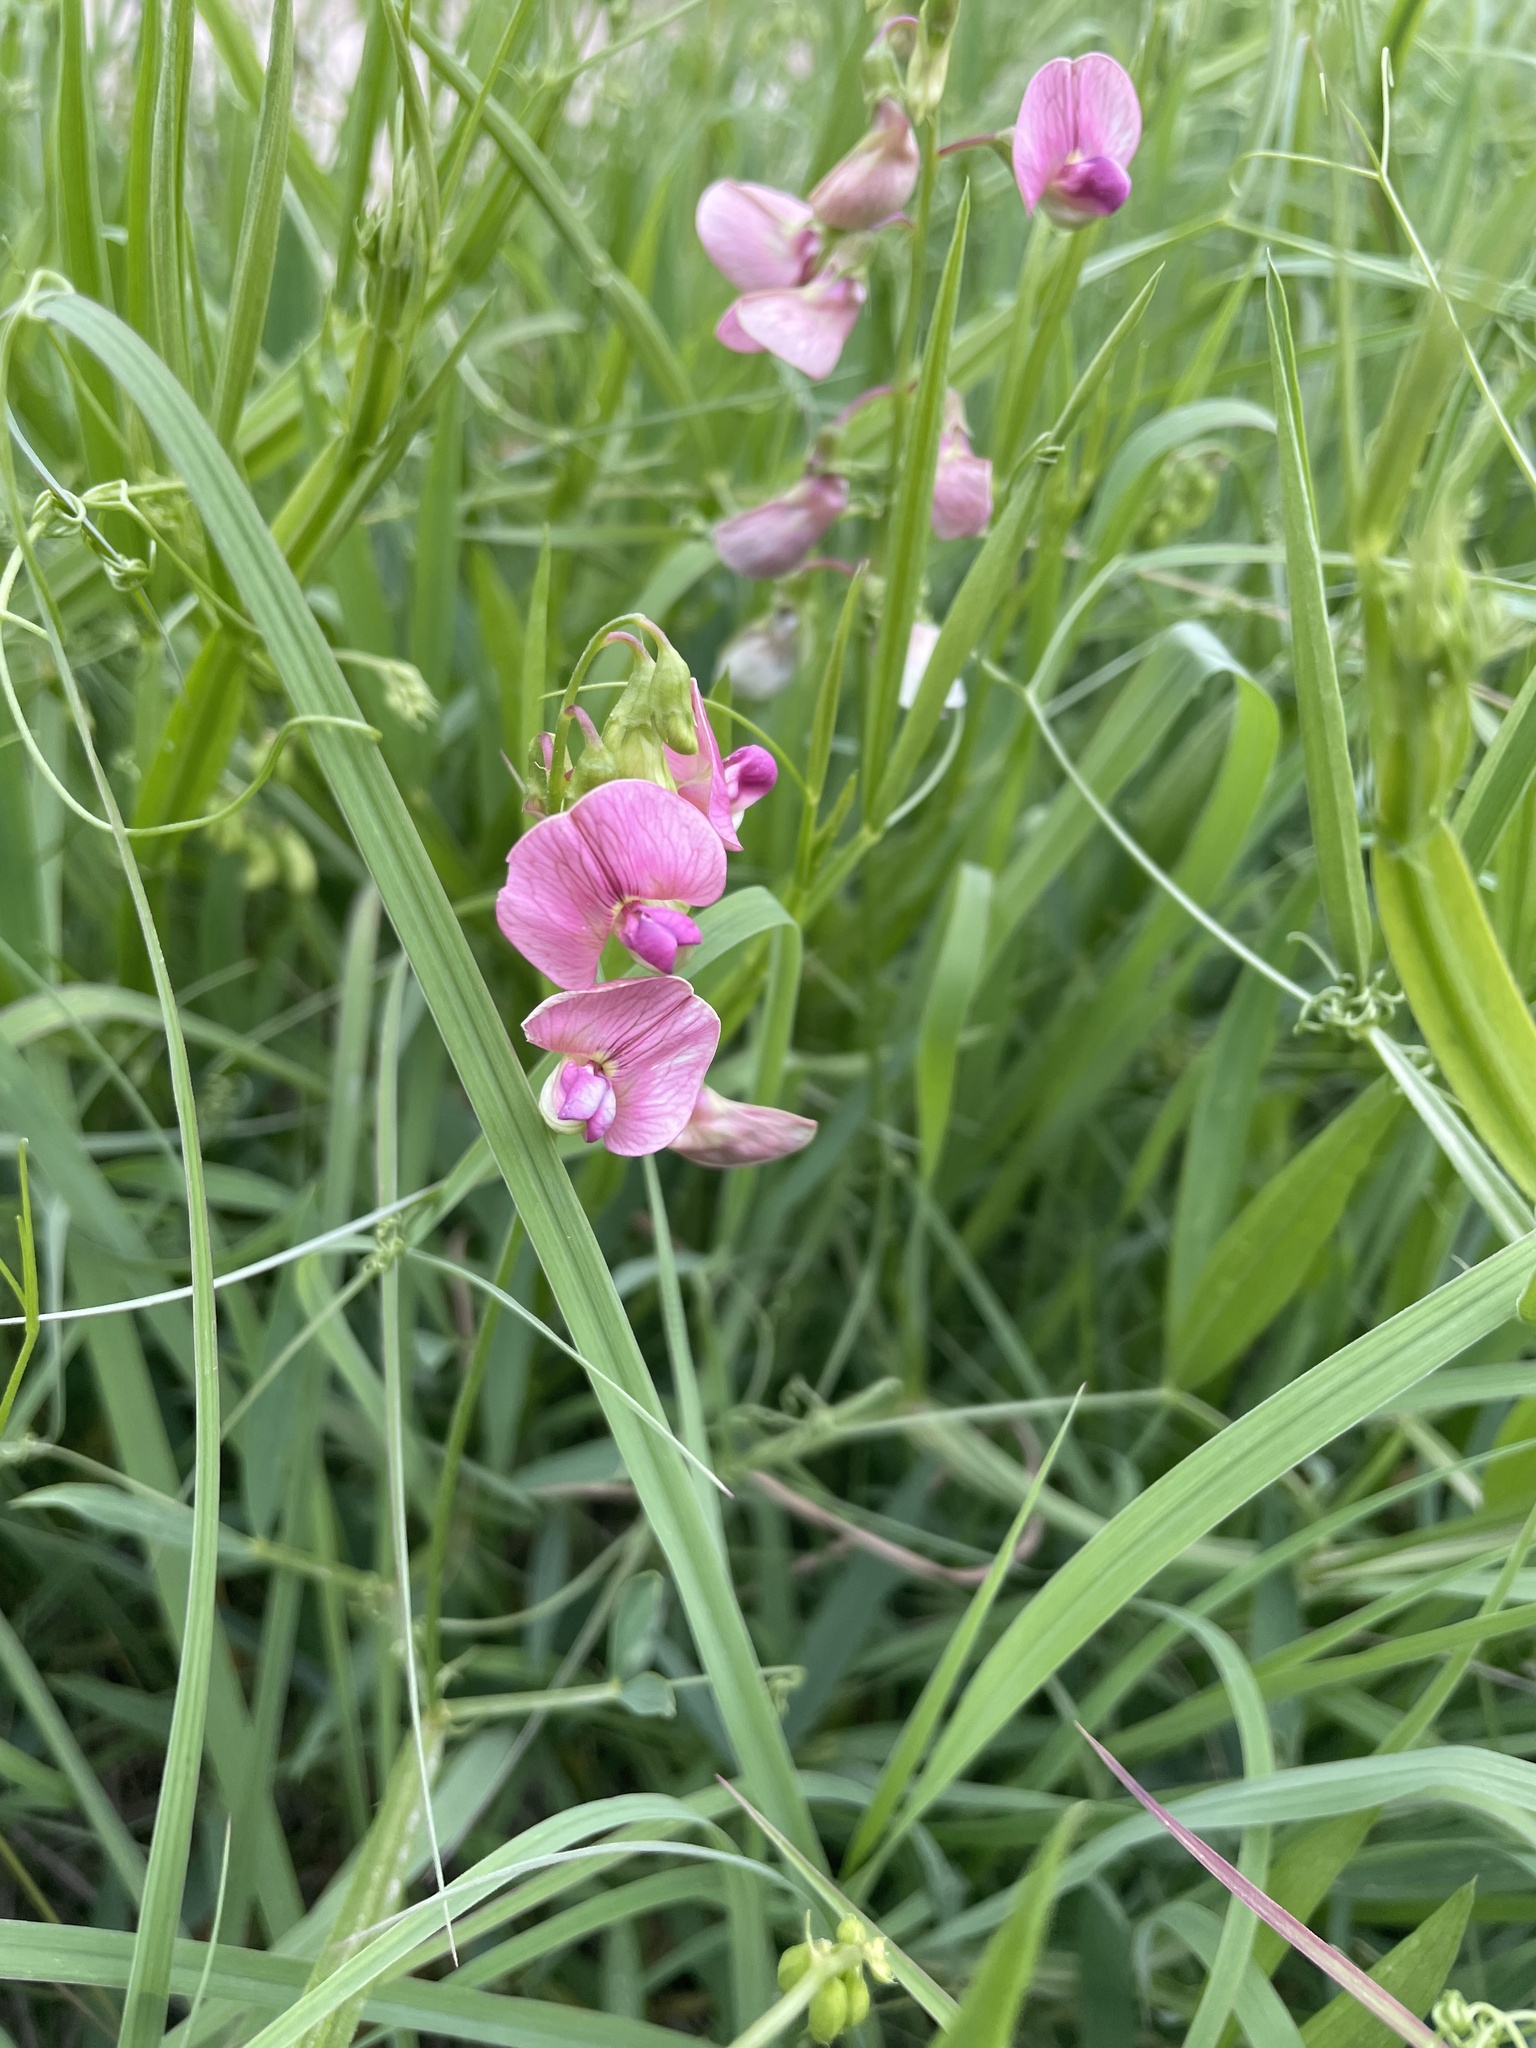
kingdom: Plantae
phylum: Tracheophyta
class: Magnoliopsida
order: Fabales
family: Fabaceae
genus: Lathyrus
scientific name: Lathyrus sylvestris
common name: Flat pea
